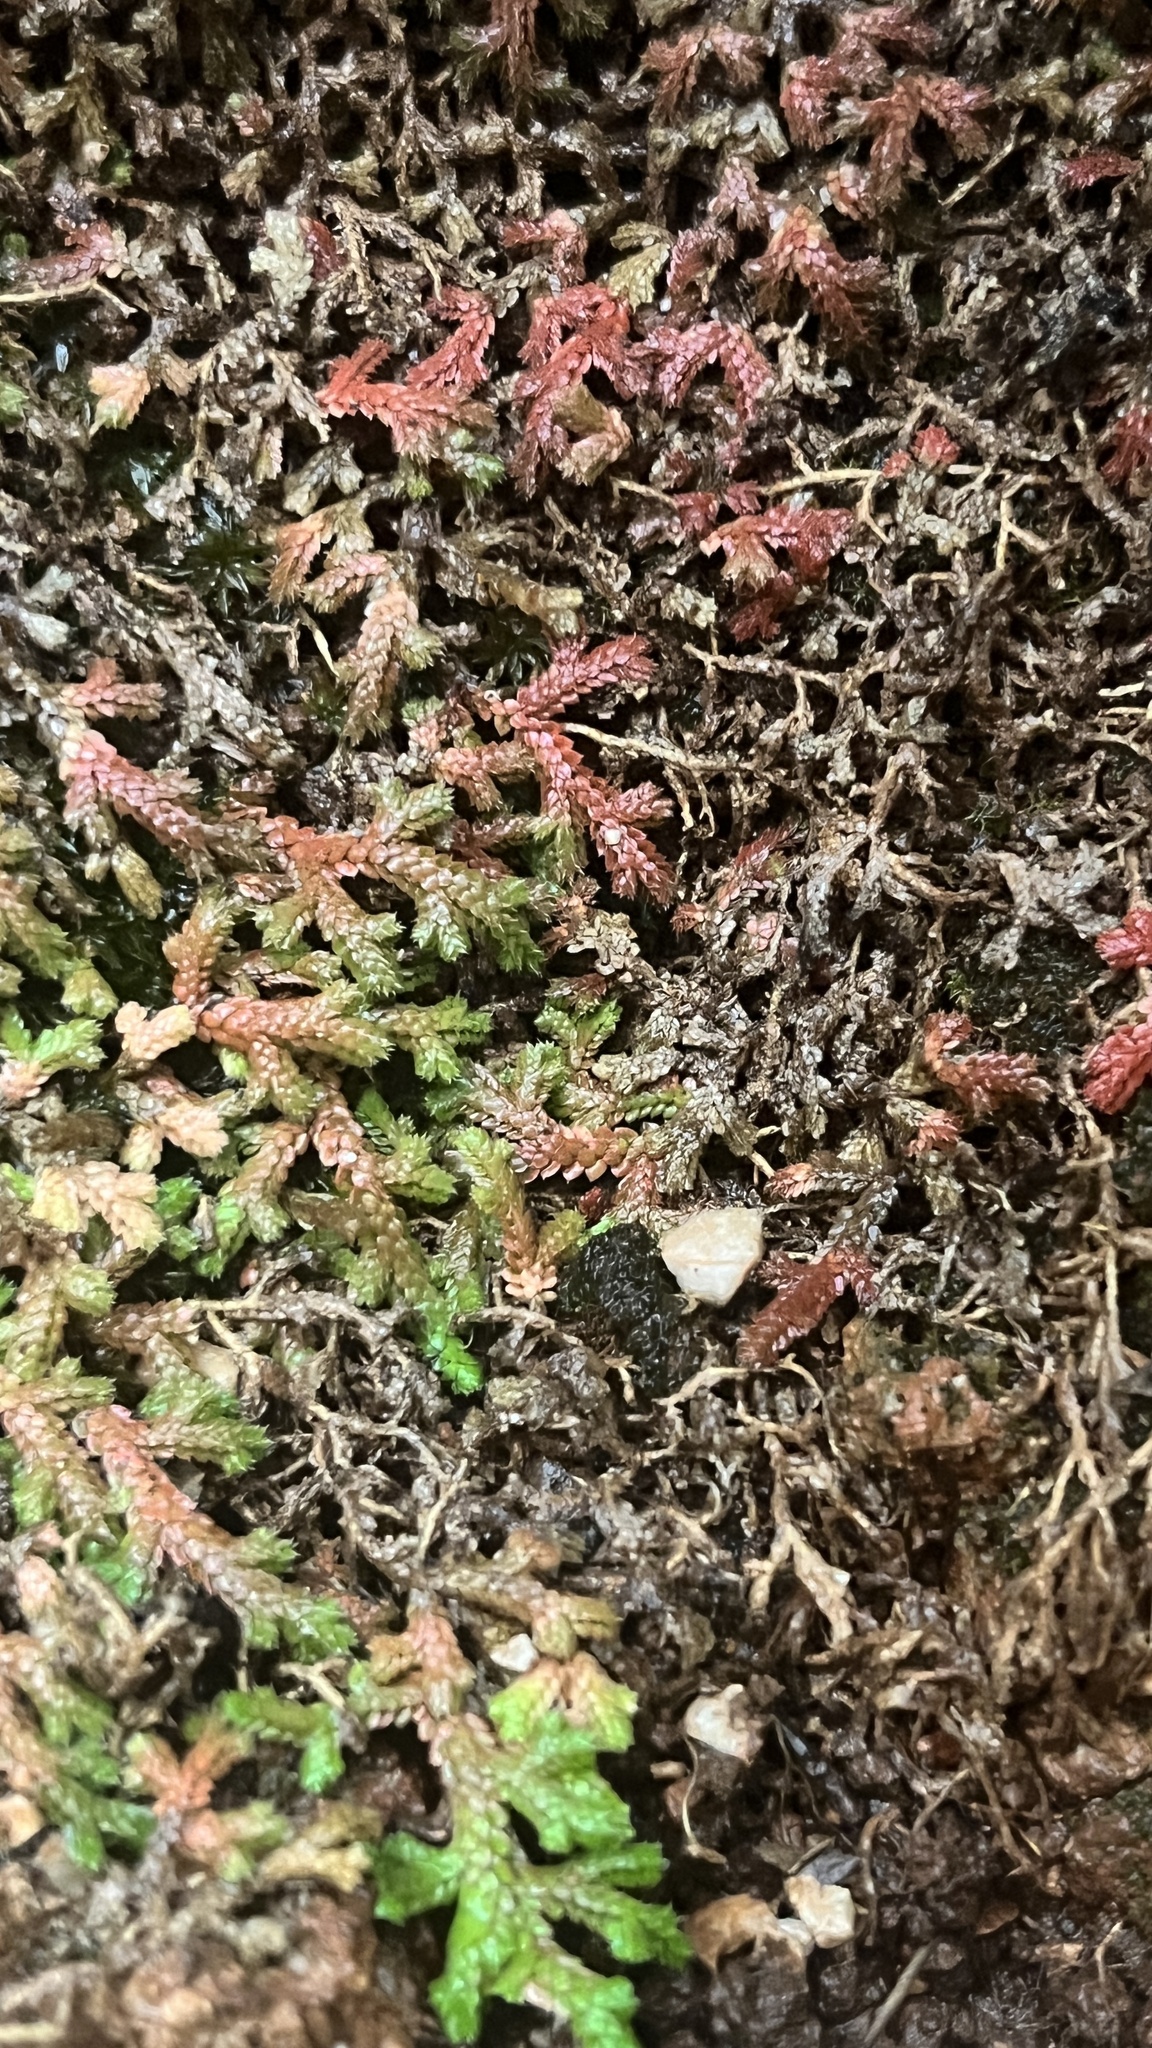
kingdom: Plantae
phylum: Tracheophyta
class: Lycopodiopsida
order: Selaginellales
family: Selaginellaceae
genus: Selaginella
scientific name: Selaginella denticulata
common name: Toothed-leaved clubmoss
